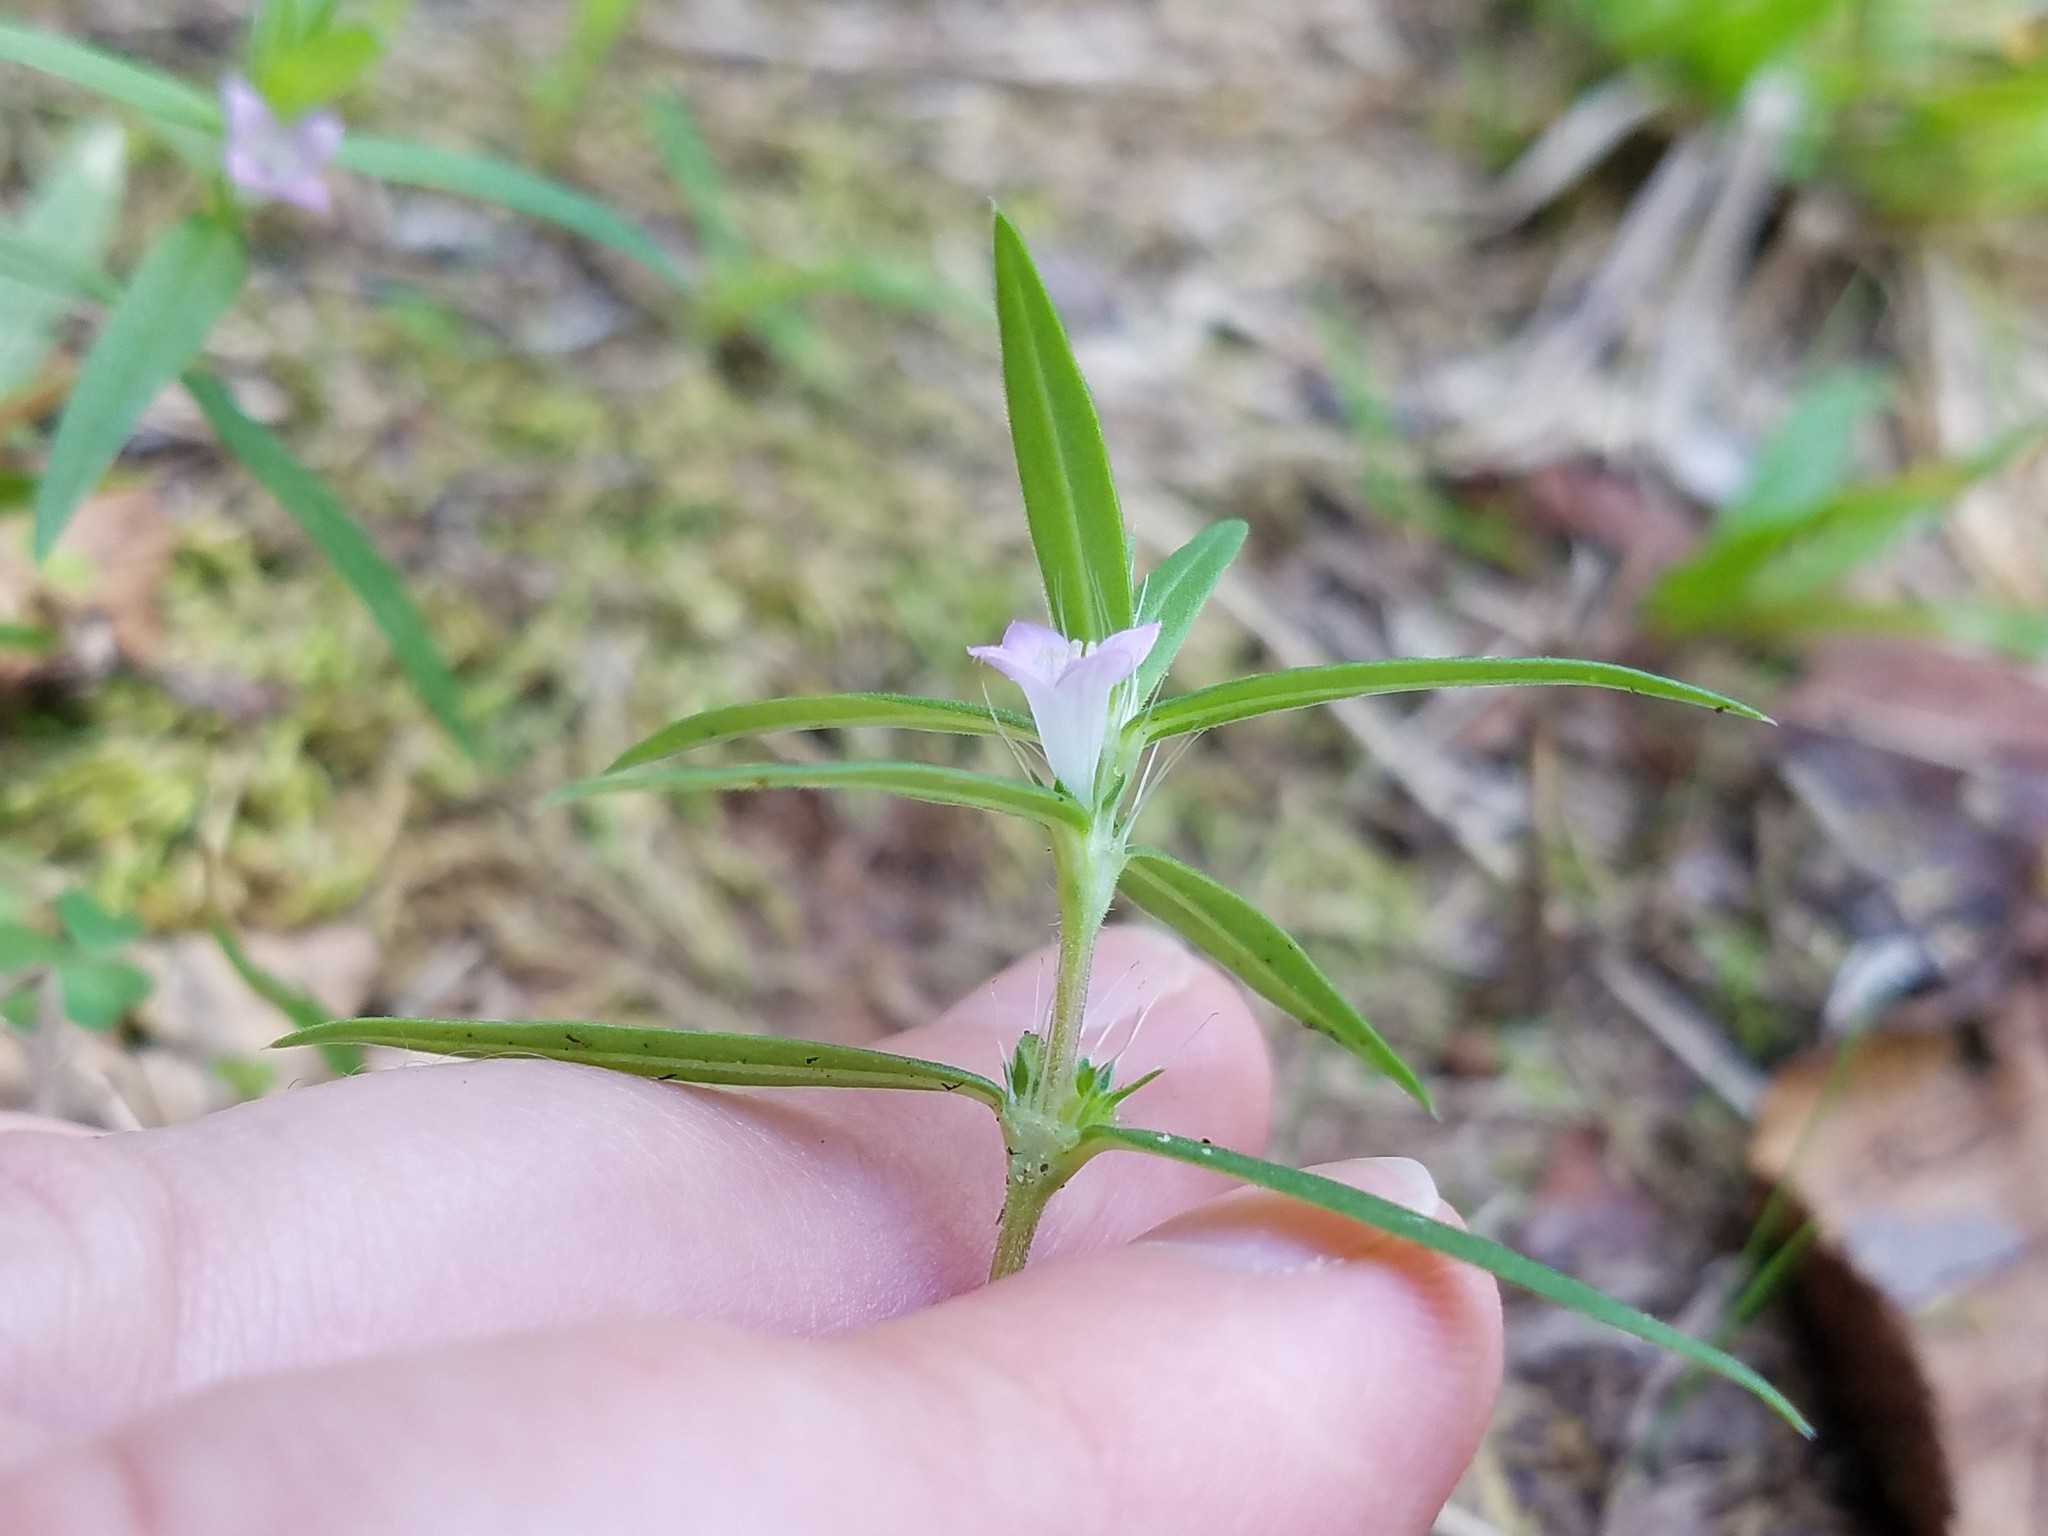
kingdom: Plantae
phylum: Tracheophyta
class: Magnoliopsida
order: Gentianales
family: Rubiaceae
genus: Hexasepalum
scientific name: Hexasepalum teres
